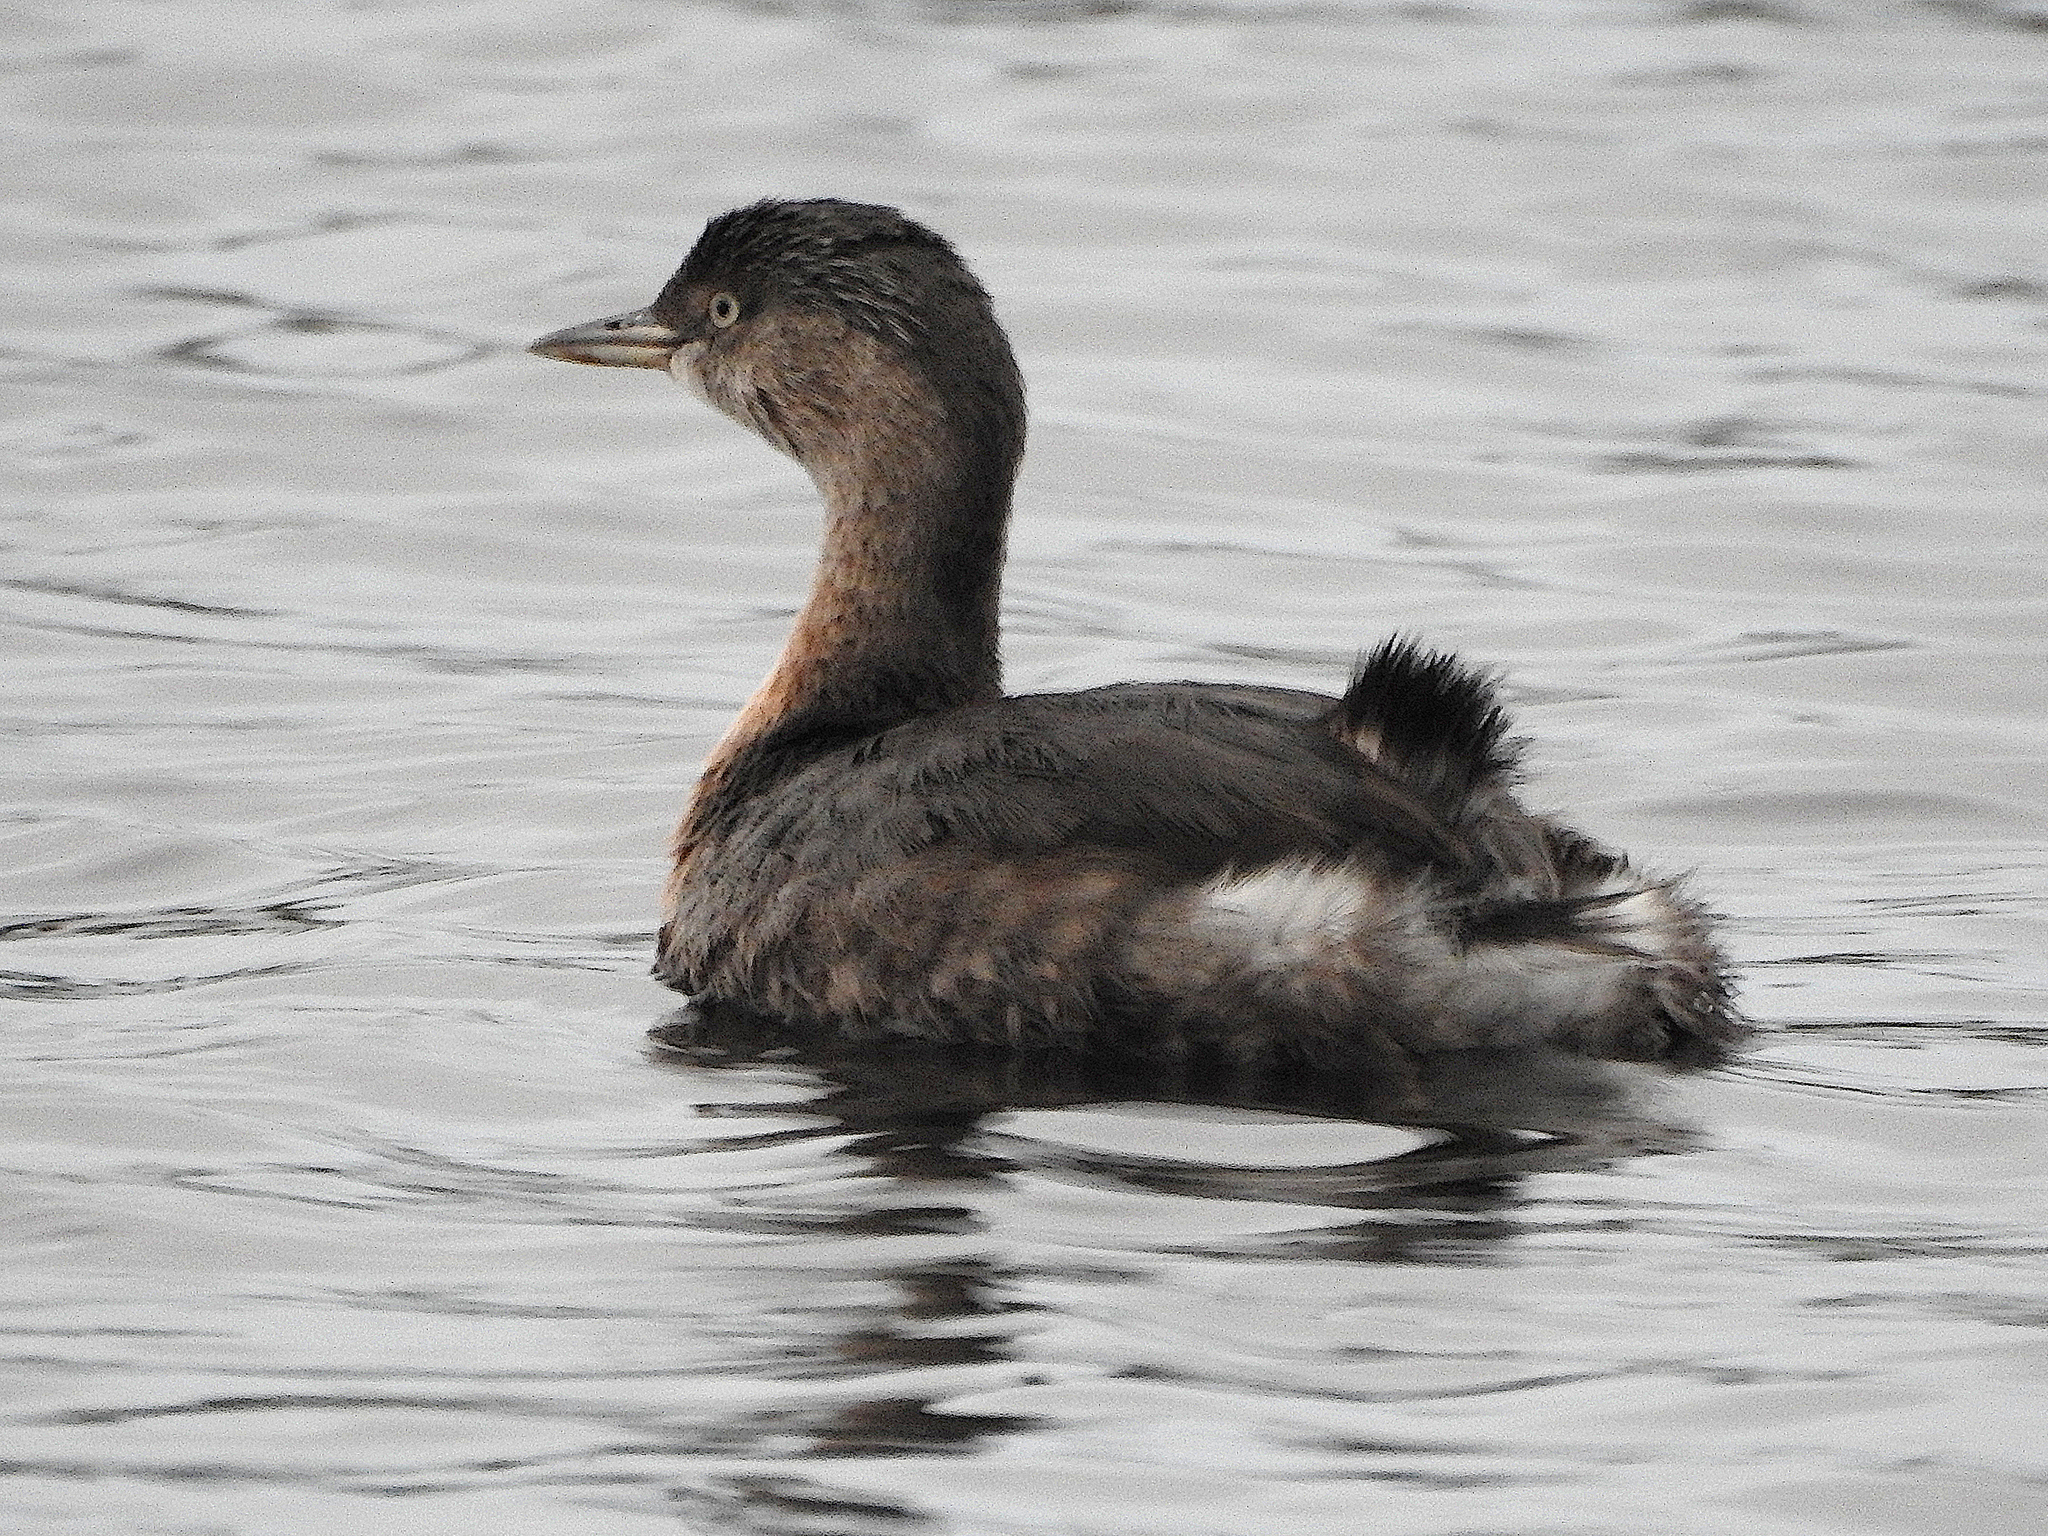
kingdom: Animalia
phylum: Chordata
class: Aves
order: Podicipediformes
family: Podicipedidae
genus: Poliocephalus
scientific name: Poliocephalus rufopectus
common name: New zealand grebe
